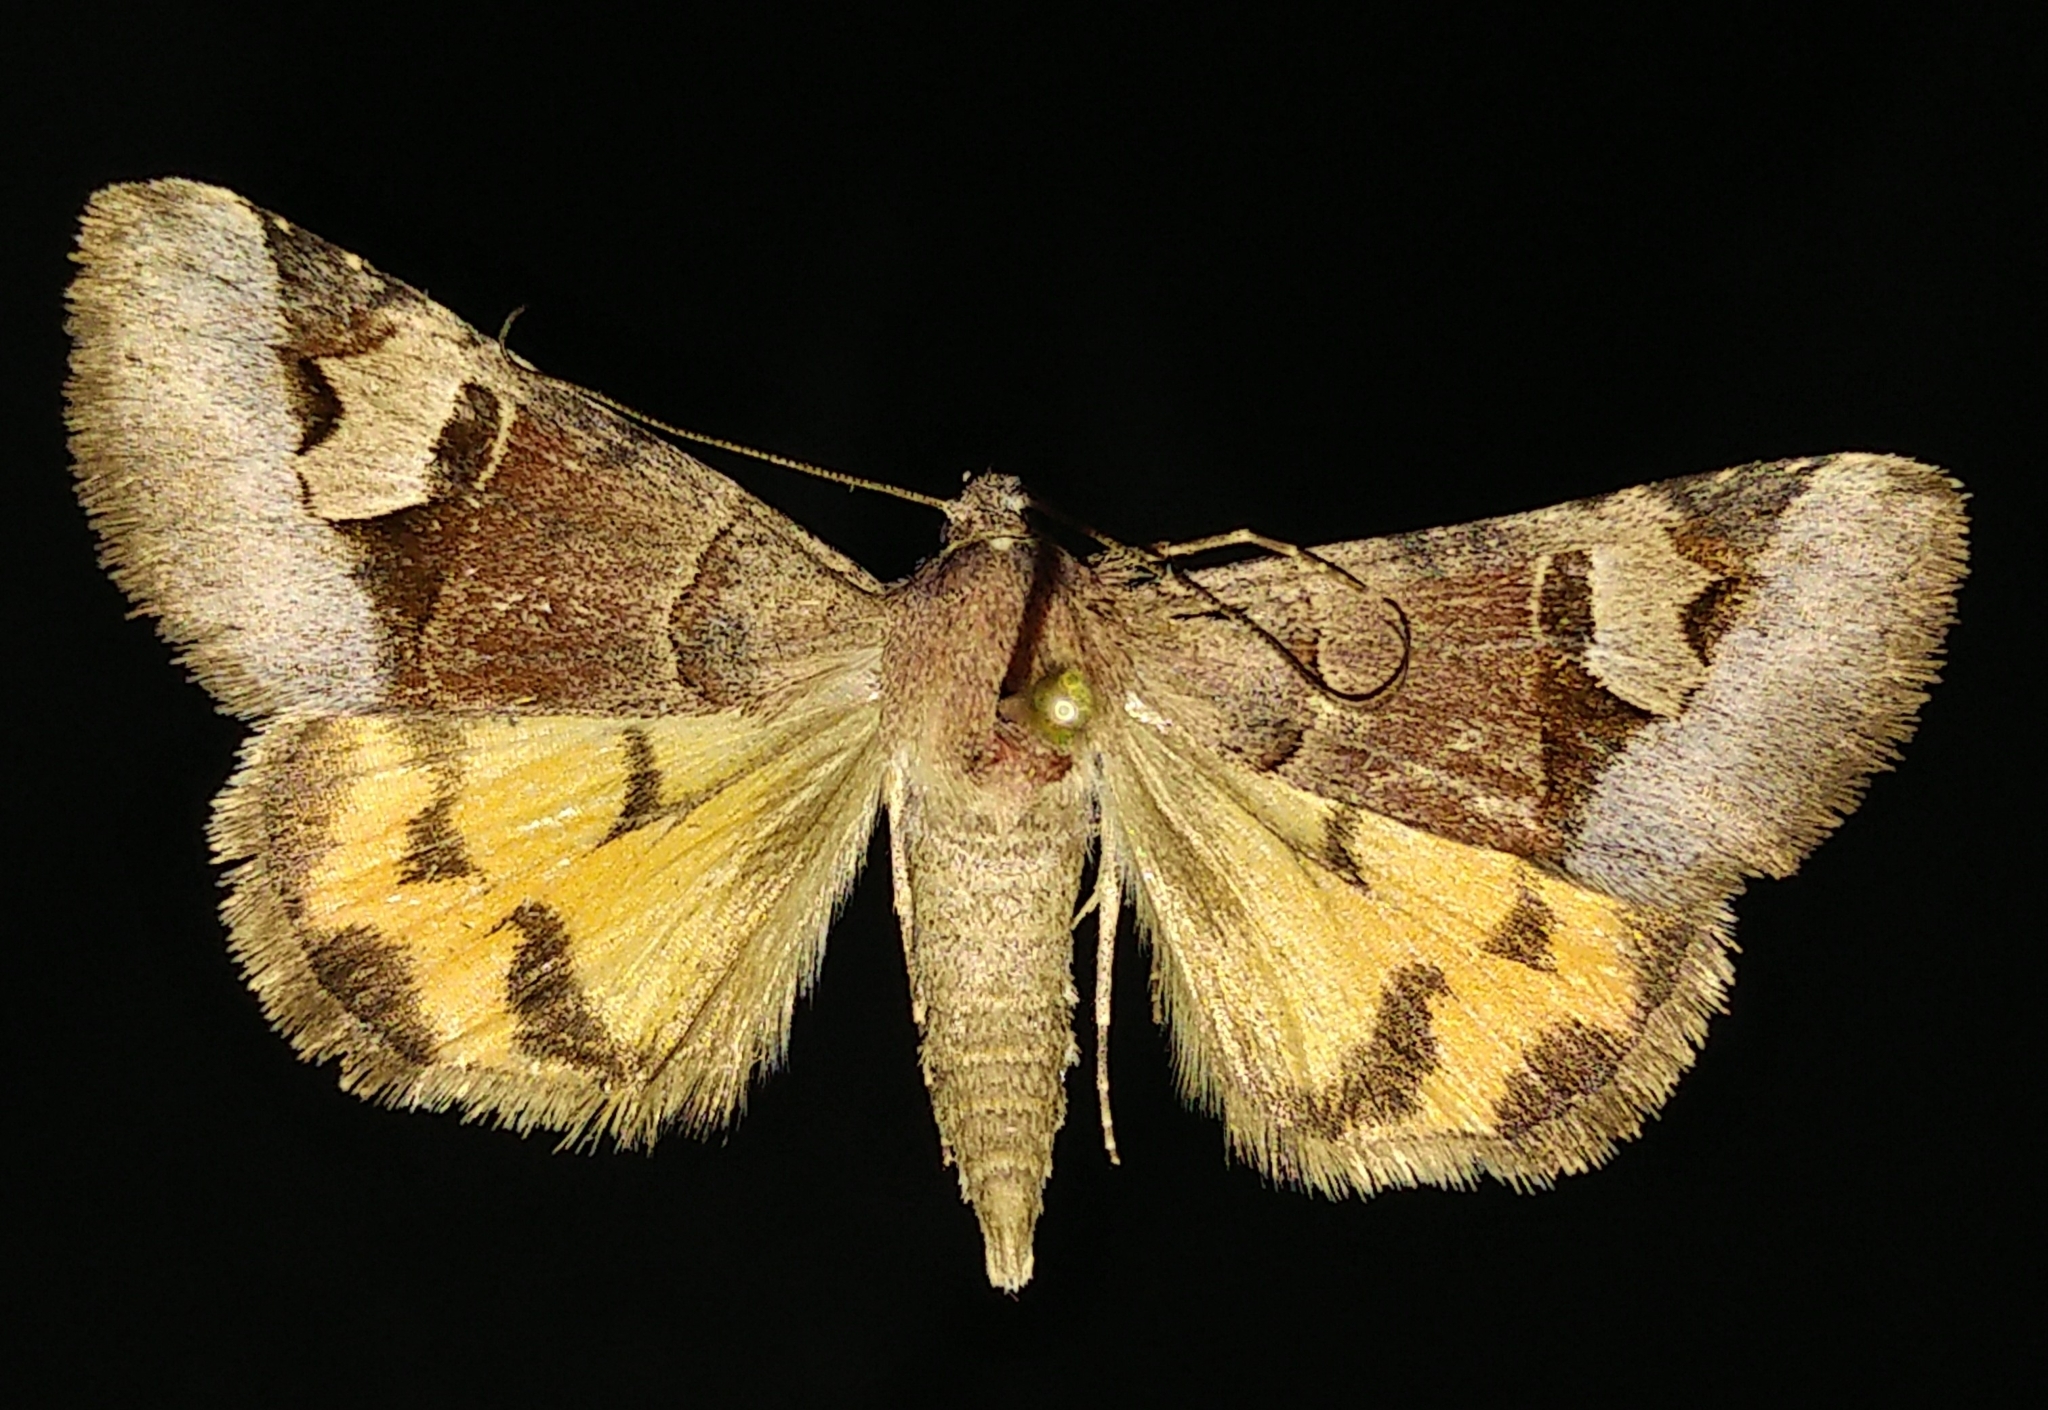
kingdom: Animalia
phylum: Arthropoda
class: Insecta
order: Lepidoptera
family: Erebidae
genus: Drasteria
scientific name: Drasteria perplexa
